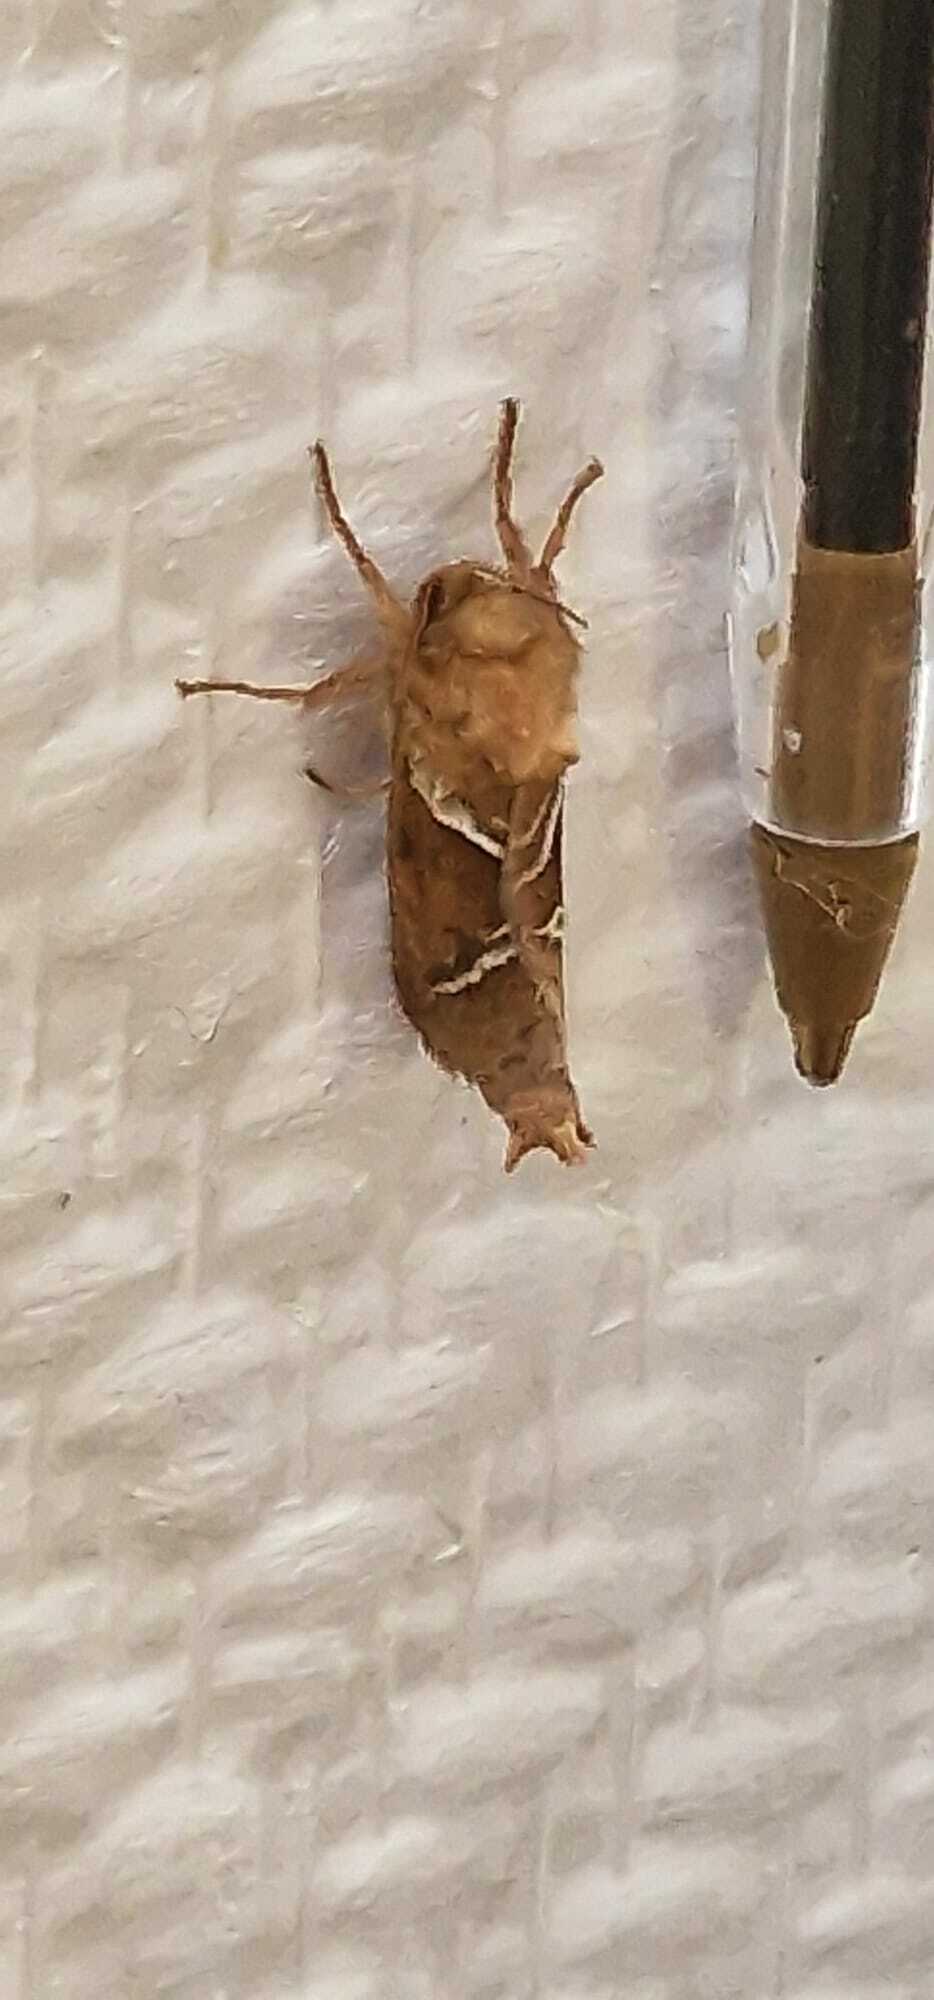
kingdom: Animalia
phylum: Arthropoda
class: Insecta
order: Lepidoptera
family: Hepialidae
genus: Triodia
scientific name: Triodia sylvina
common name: Orange swift
